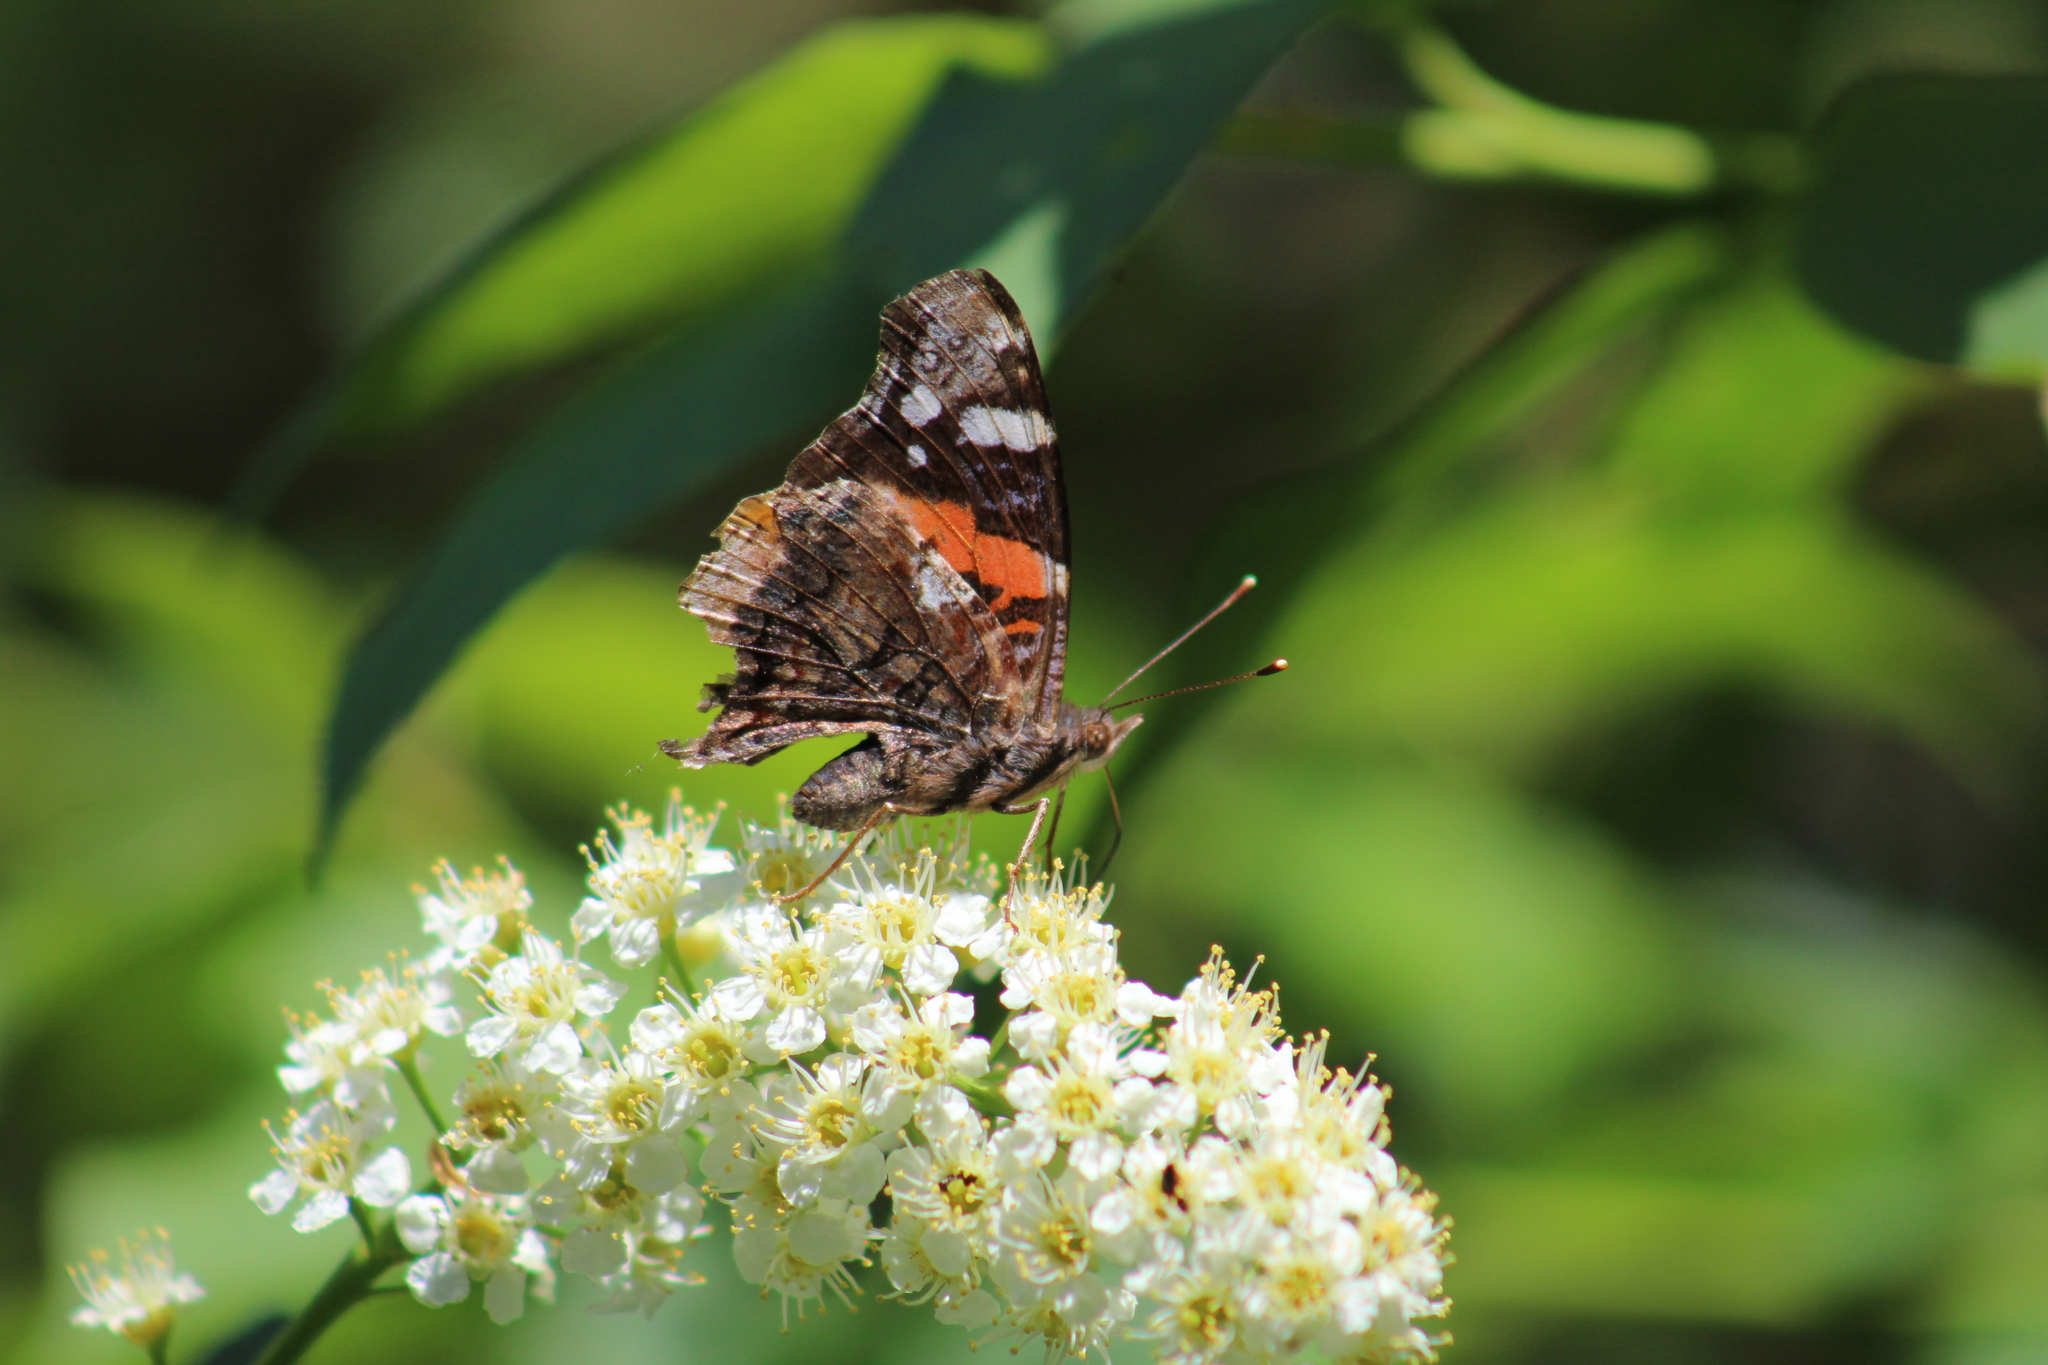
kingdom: Animalia
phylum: Arthropoda
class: Insecta
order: Lepidoptera
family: Nymphalidae
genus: Vanessa
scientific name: Vanessa atalanta
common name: Red admiral
